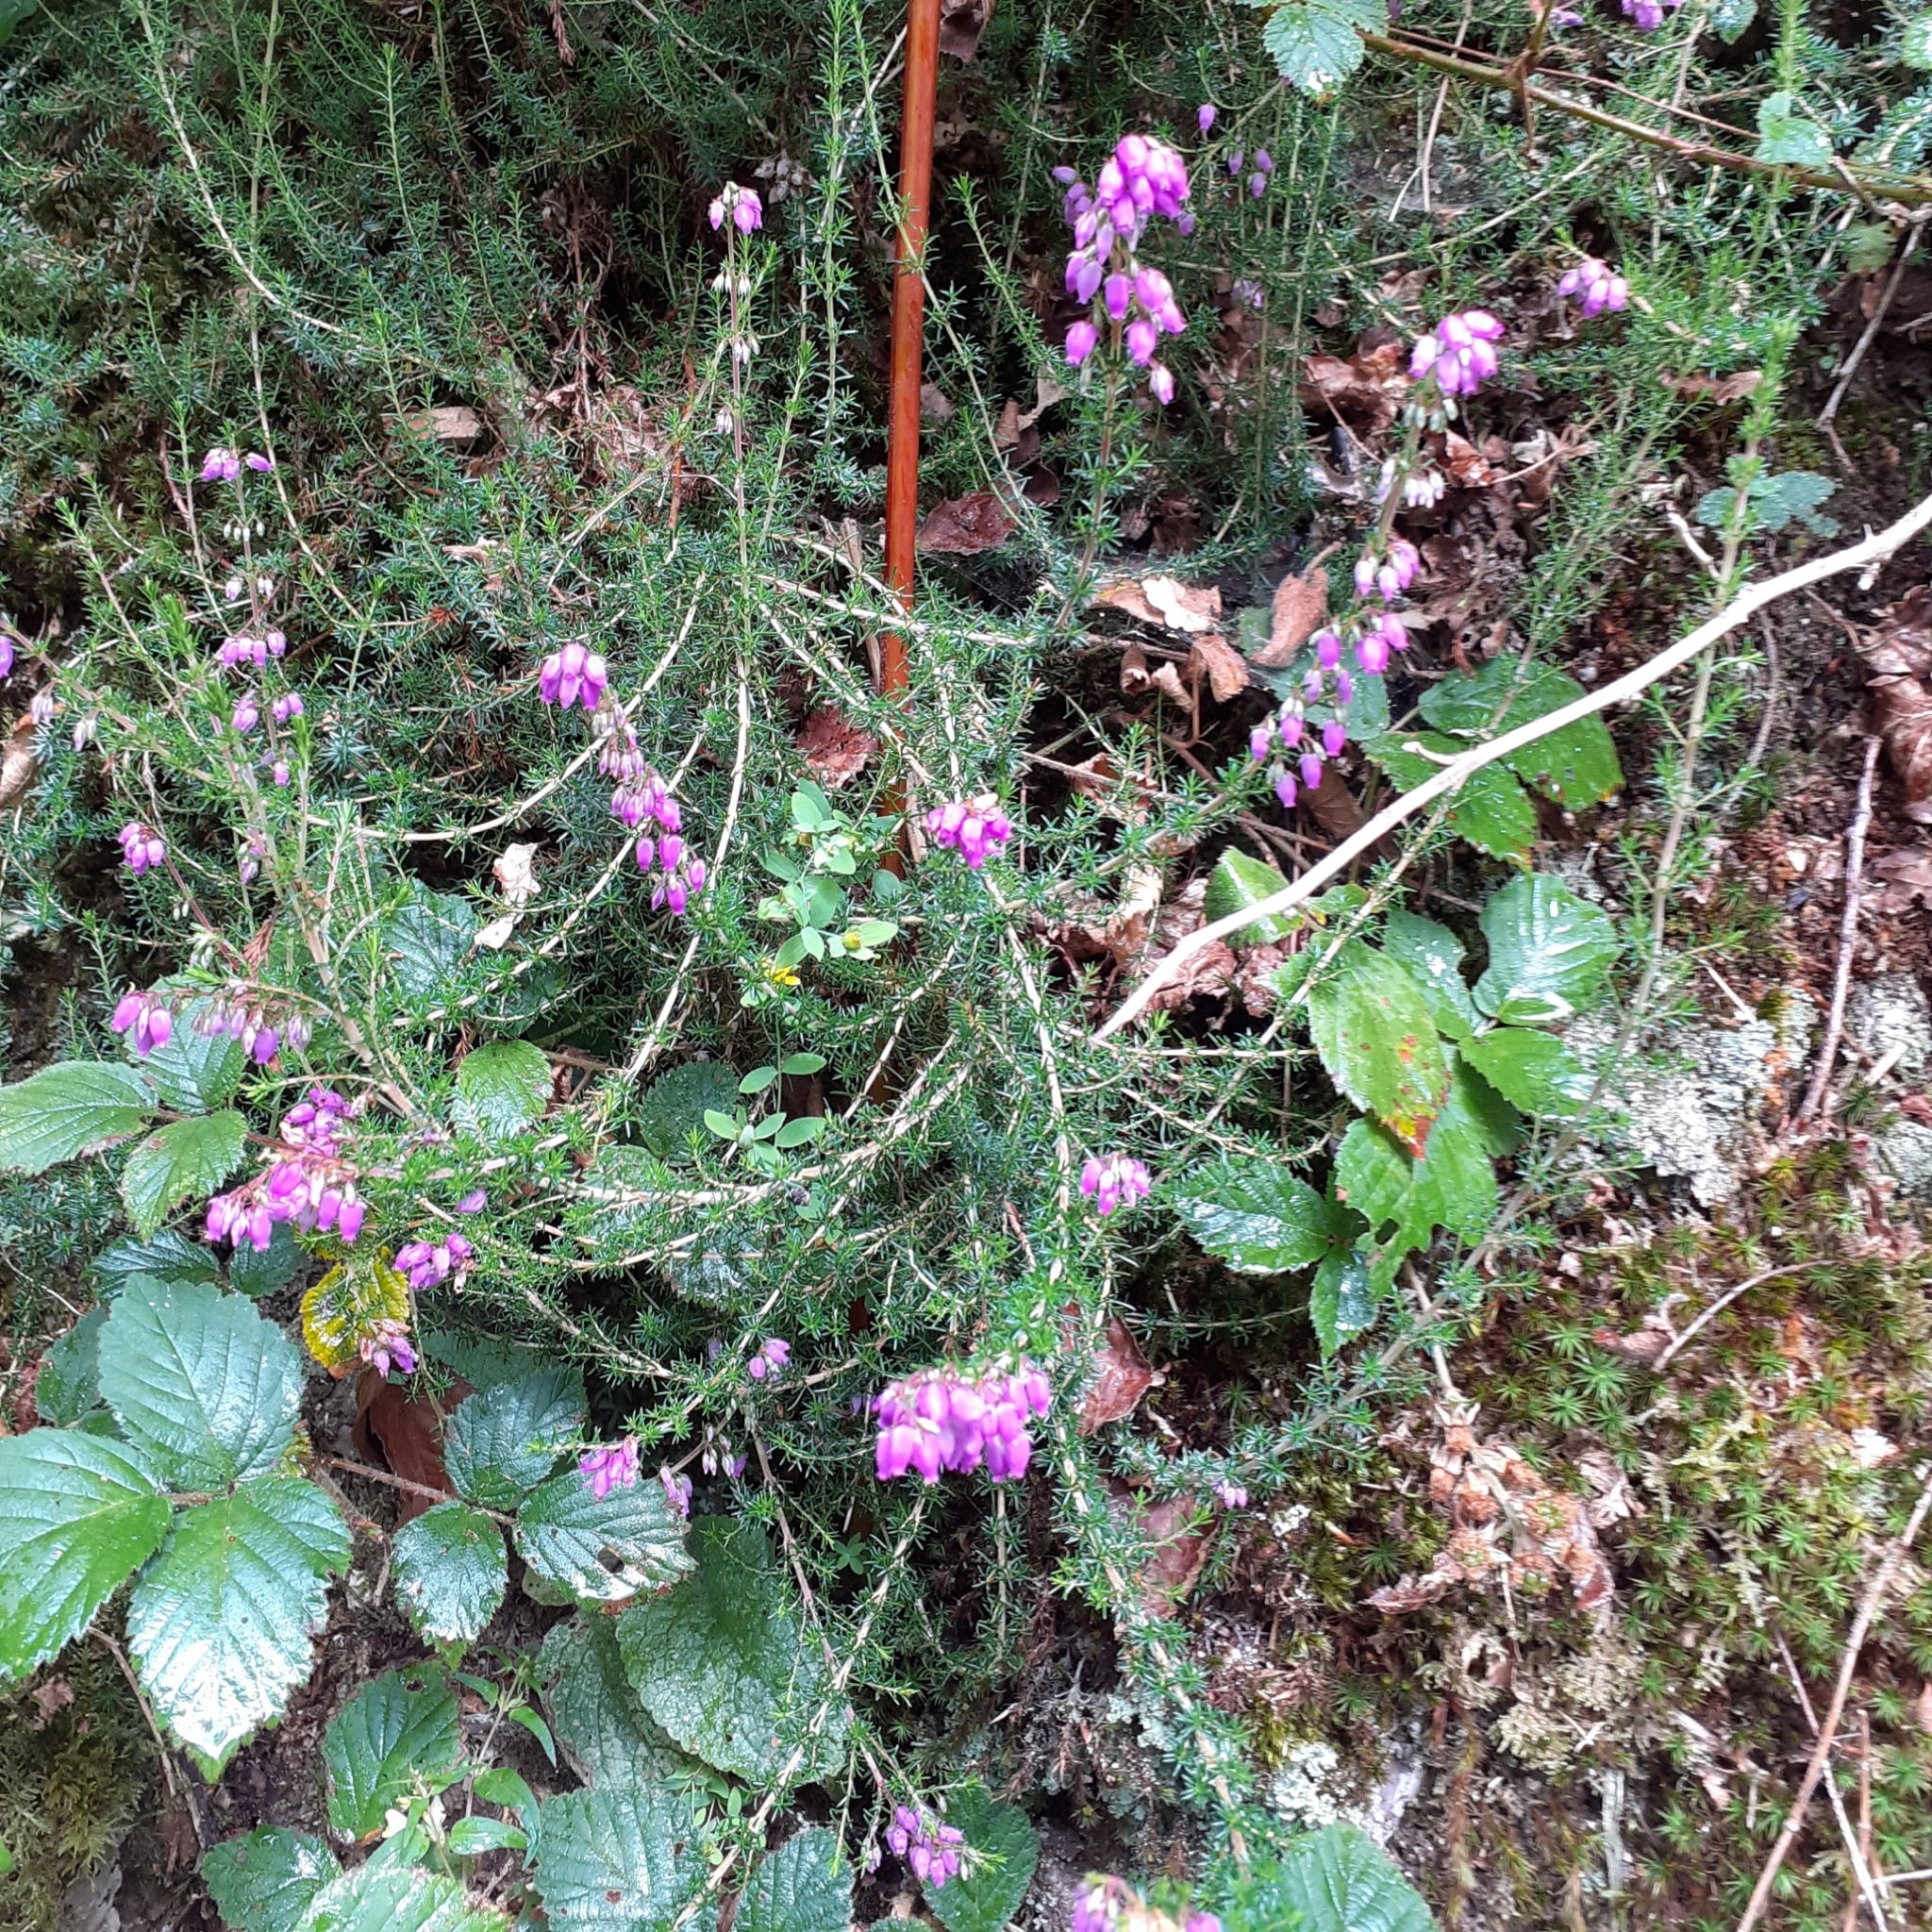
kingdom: Plantae
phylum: Tracheophyta
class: Magnoliopsida
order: Ericales
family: Ericaceae
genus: Erica
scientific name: Erica cinerea
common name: Bell heather
